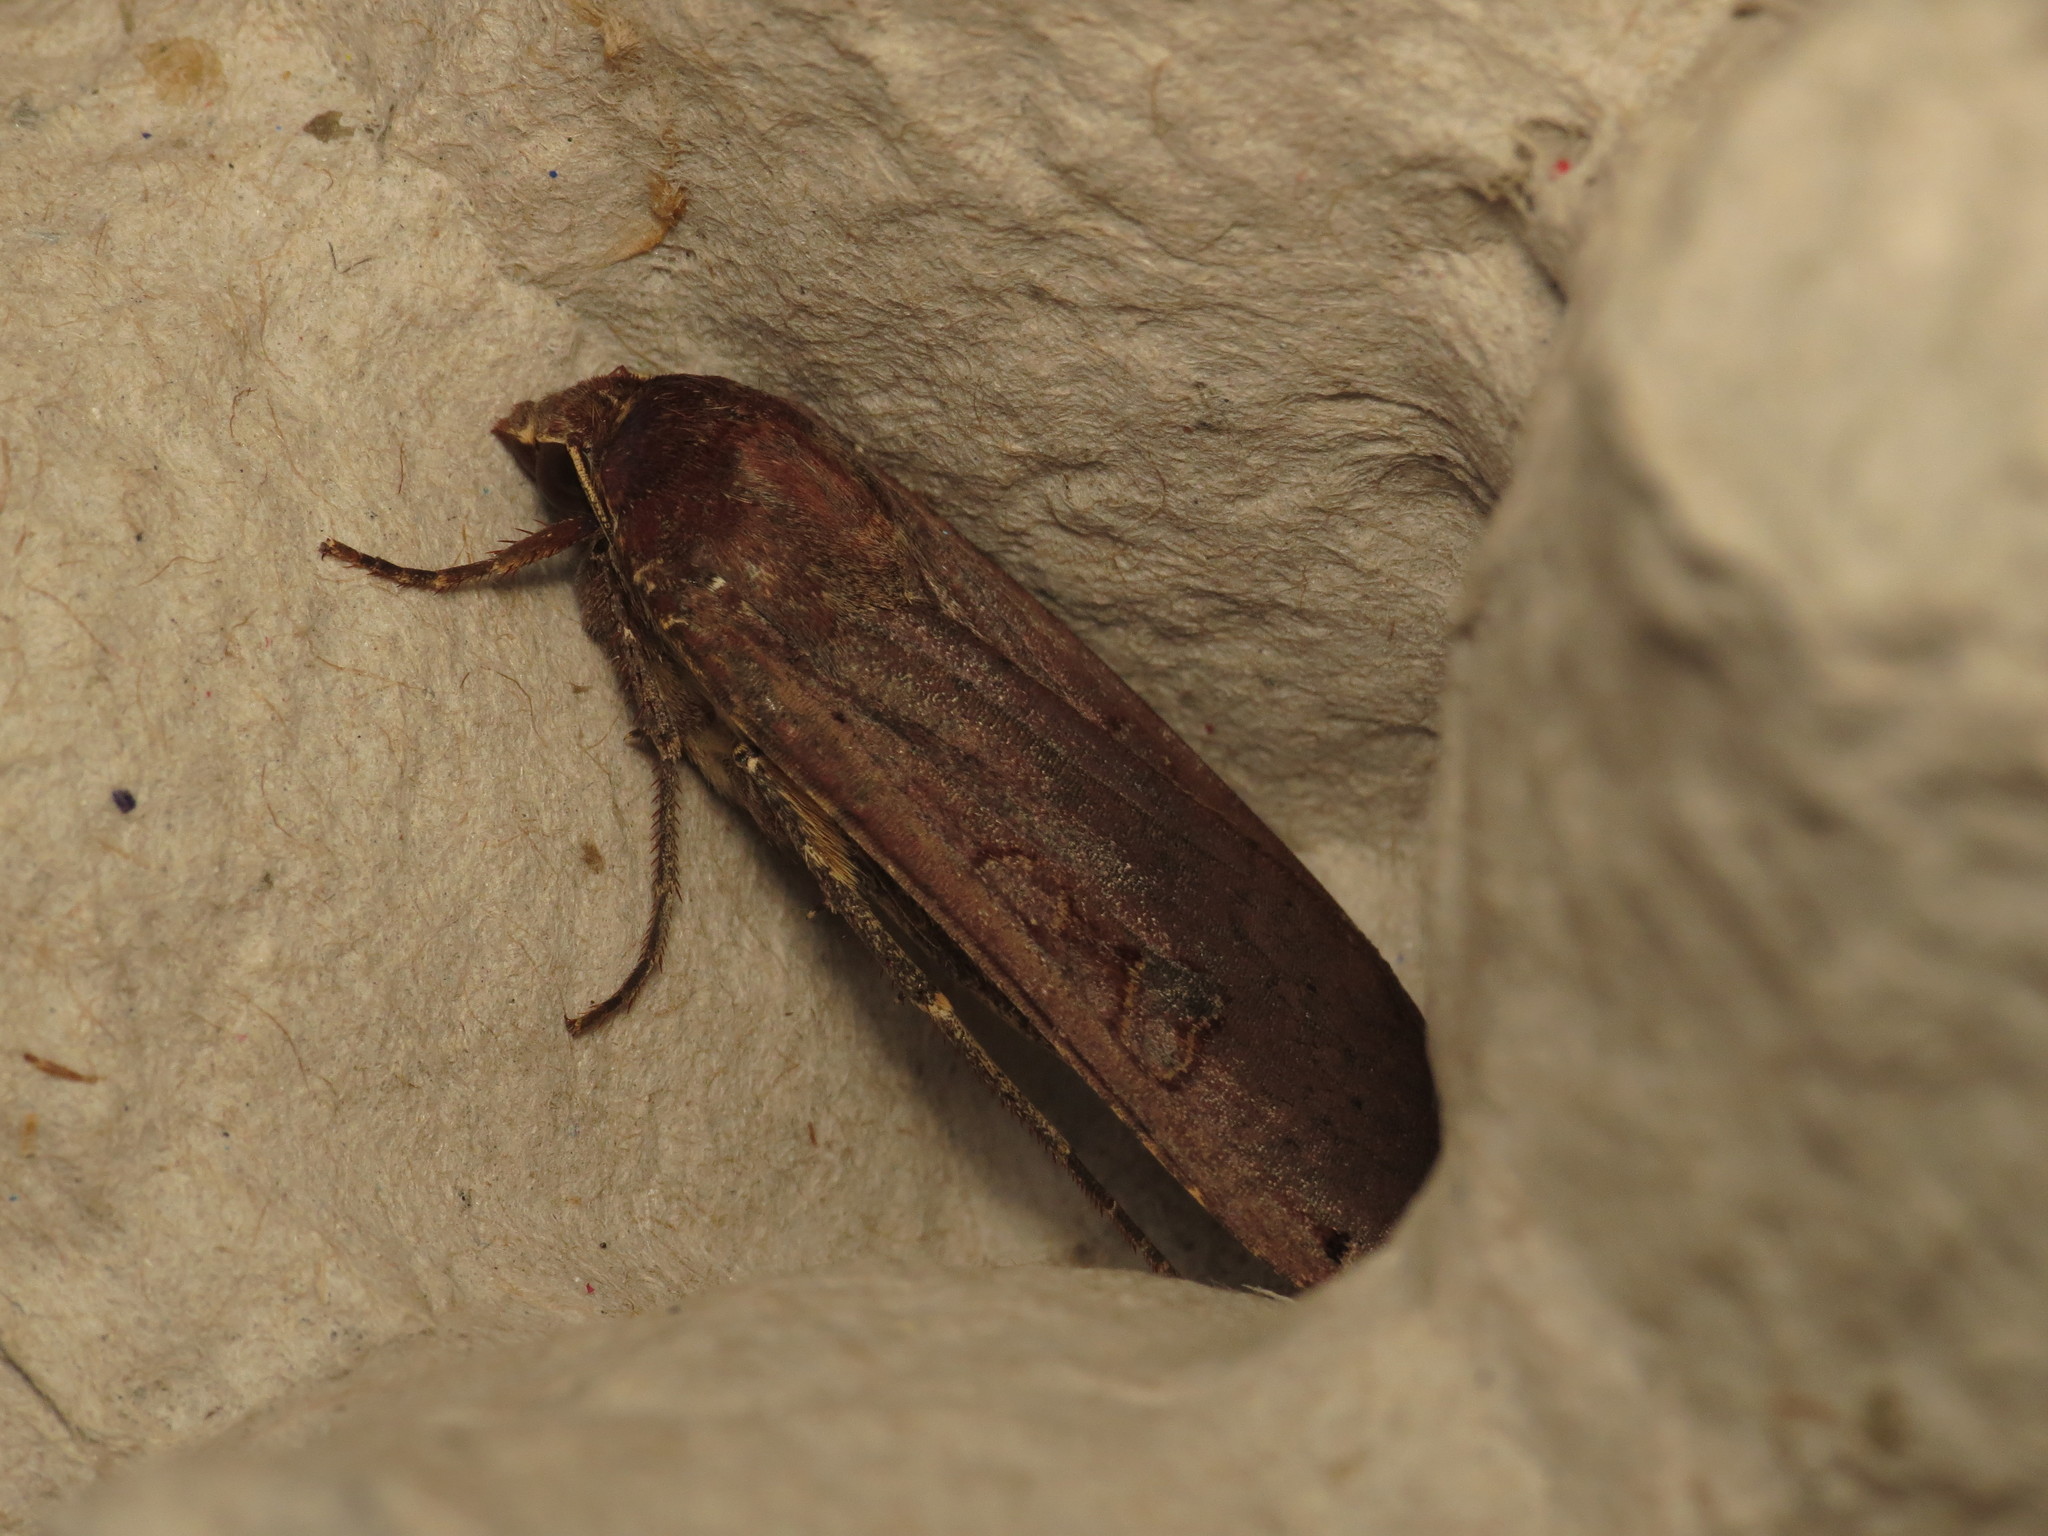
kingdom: Animalia
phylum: Arthropoda
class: Insecta
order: Lepidoptera
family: Noctuidae
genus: Noctua
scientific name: Noctua pronuba
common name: Large yellow underwing
